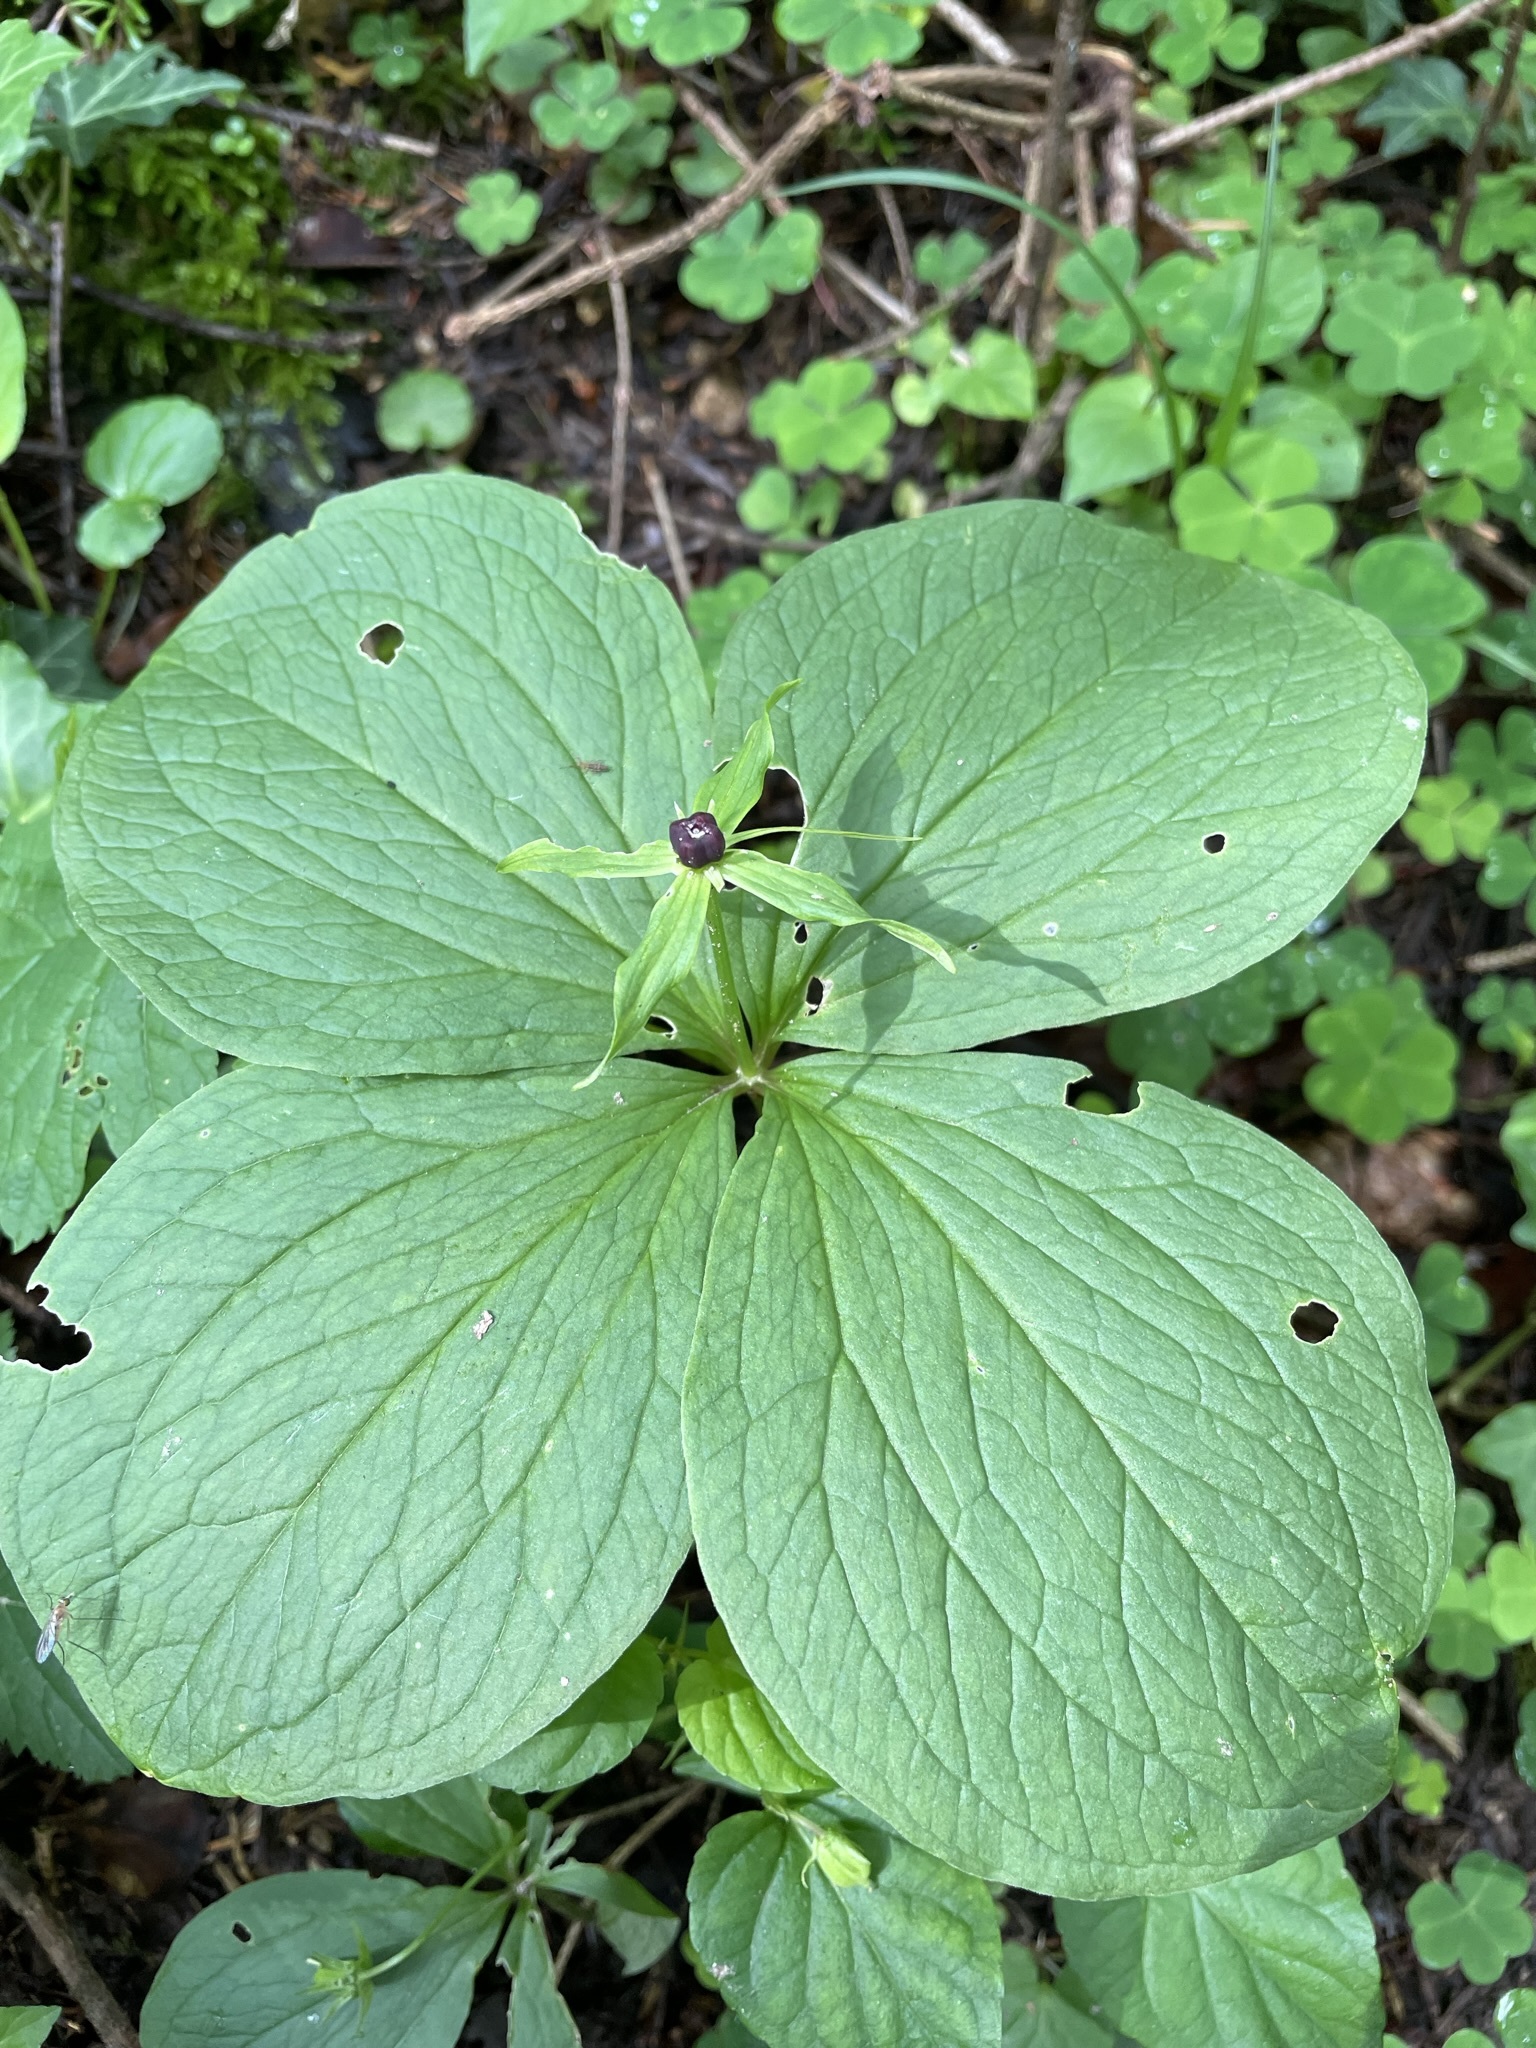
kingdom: Plantae
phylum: Tracheophyta
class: Liliopsida
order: Liliales
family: Melanthiaceae
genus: Paris
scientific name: Paris quadrifolia
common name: Herb-paris
